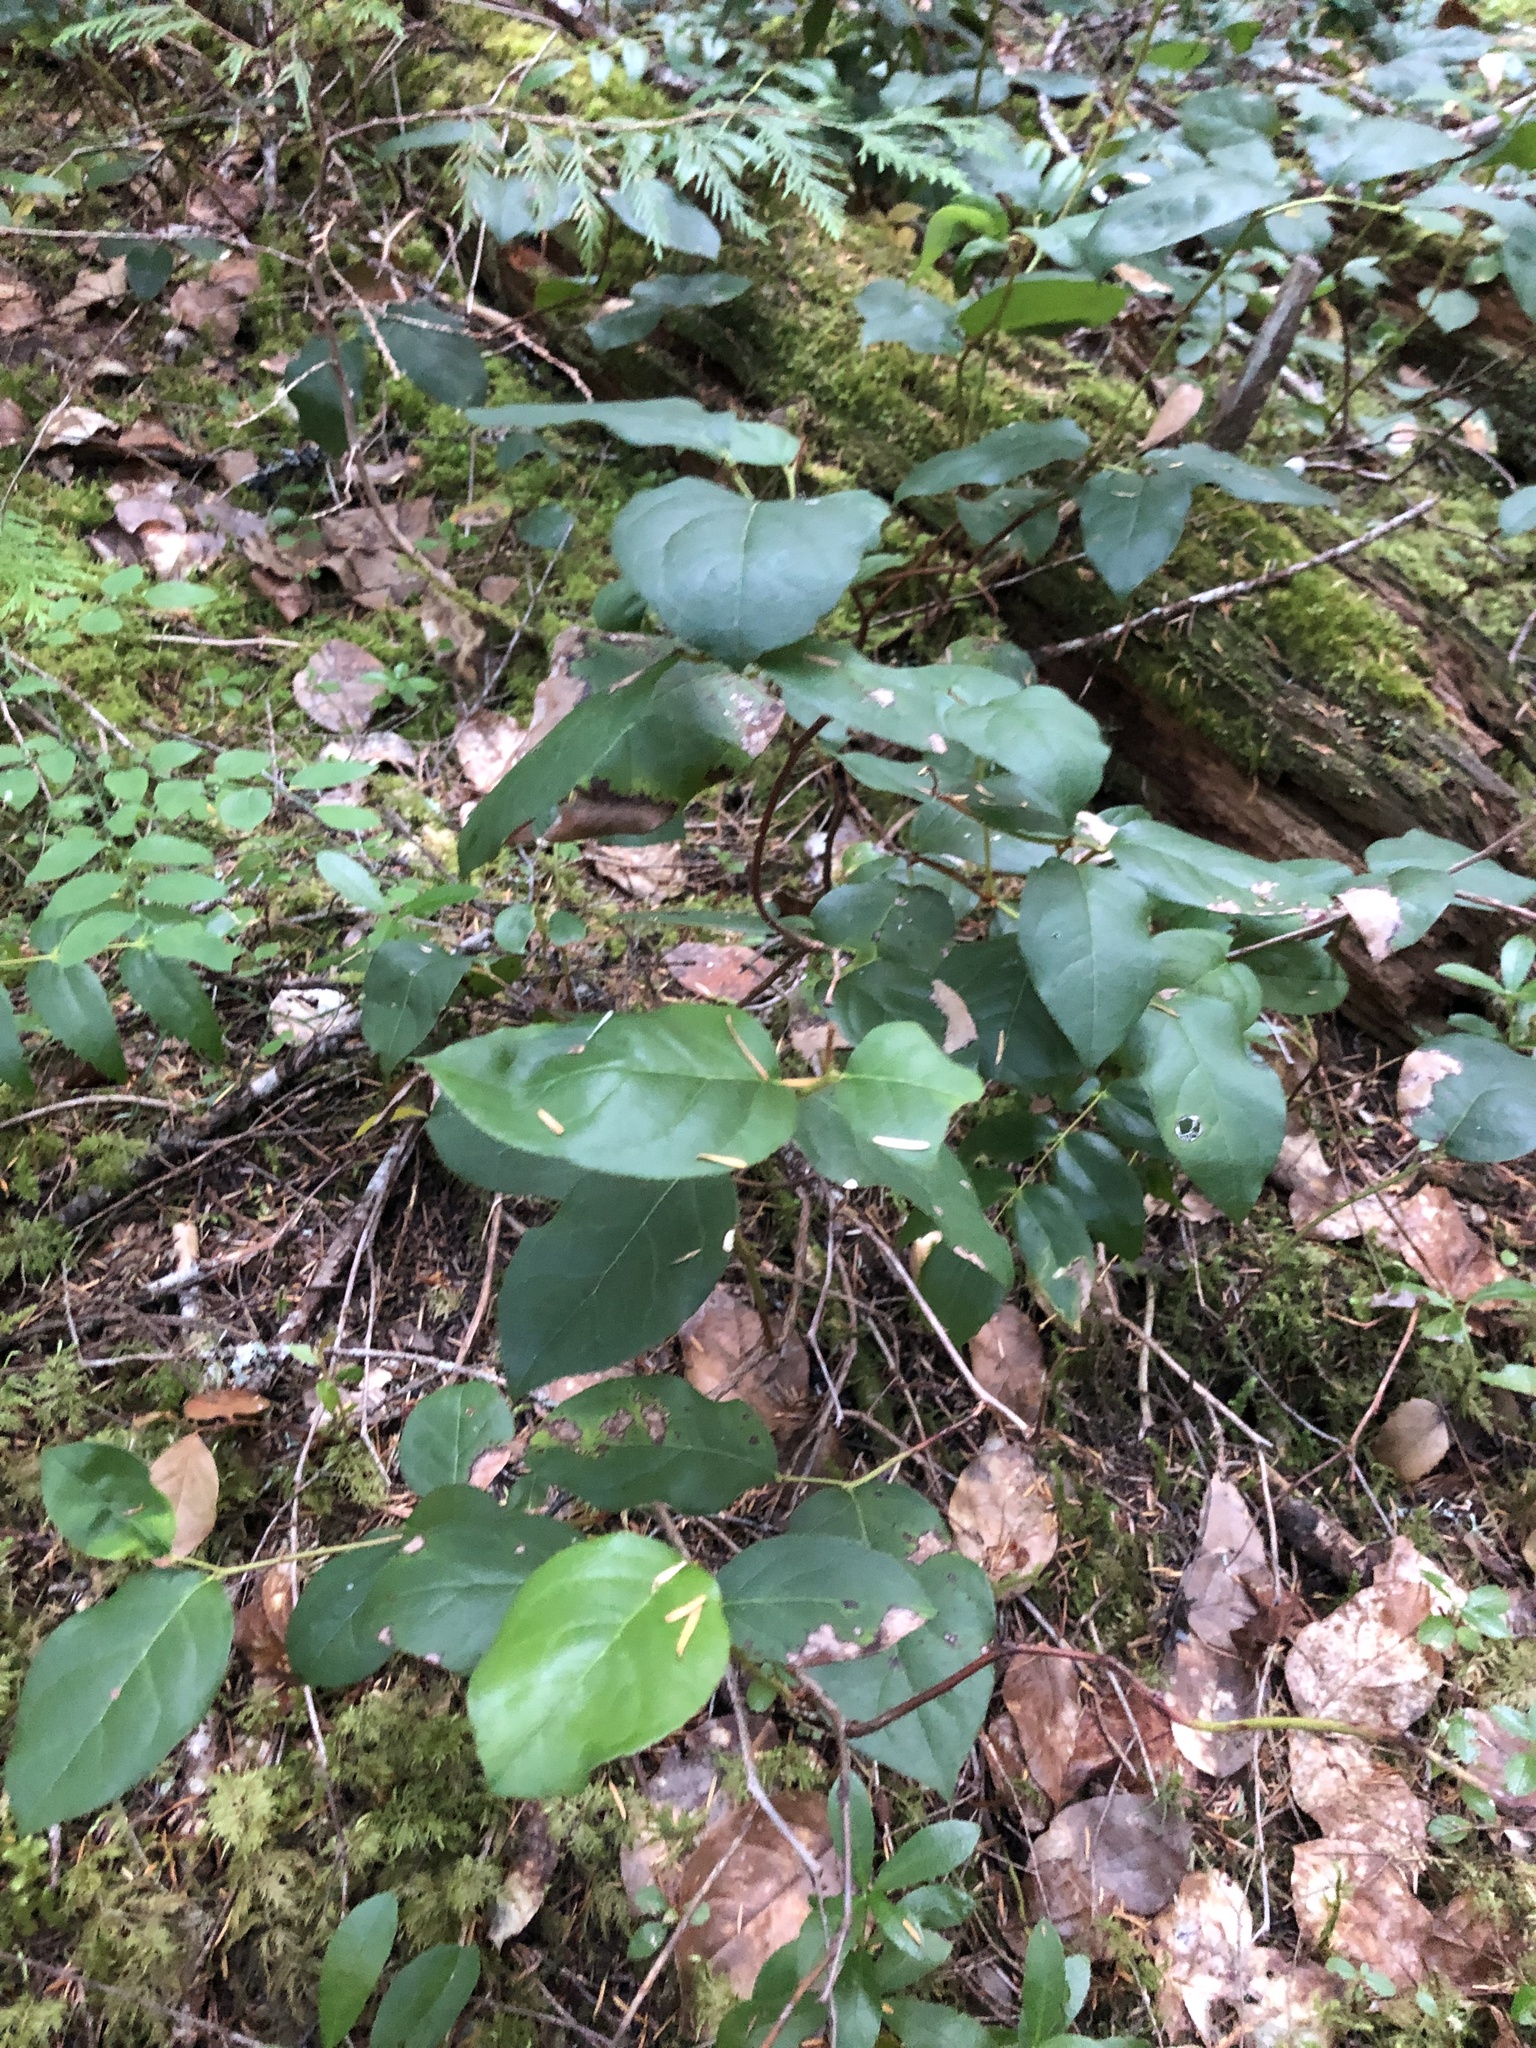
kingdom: Plantae
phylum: Tracheophyta
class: Magnoliopsida
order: Ericales
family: Ericaceae
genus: Gaultheria
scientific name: Gaultheria shallon
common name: Shallon
